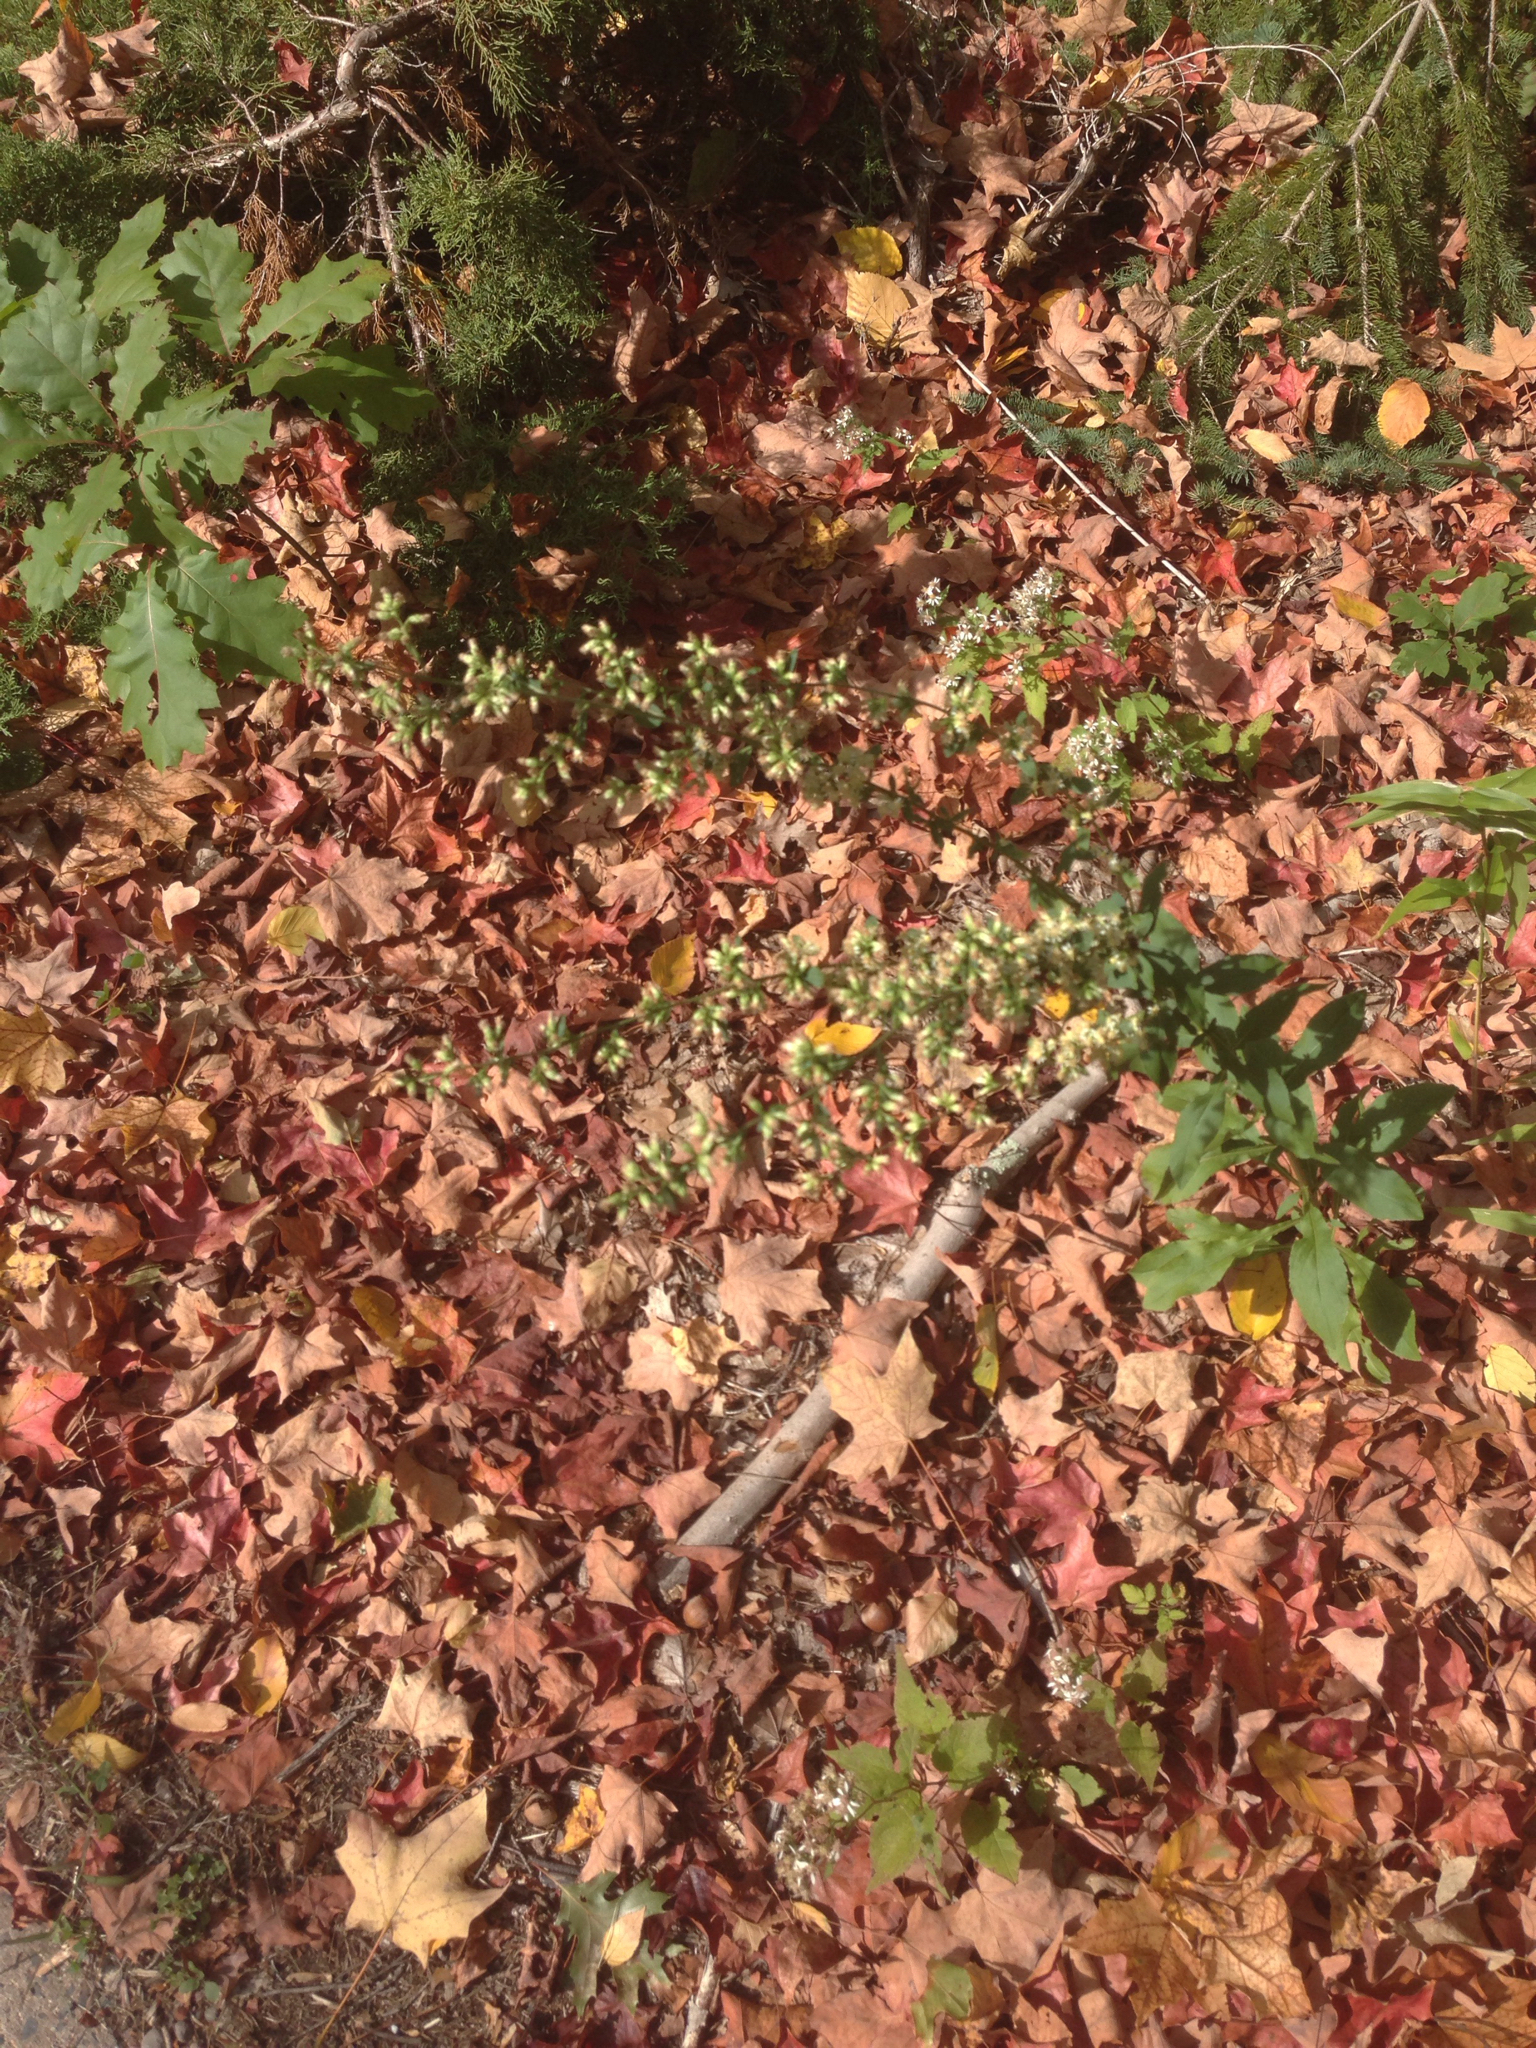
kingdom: Plantae
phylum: Tracheophyta
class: Magnoliopsida
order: Asterales
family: Asteraceae
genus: Solidago
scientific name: Solidago bicolor
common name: Silverrod
